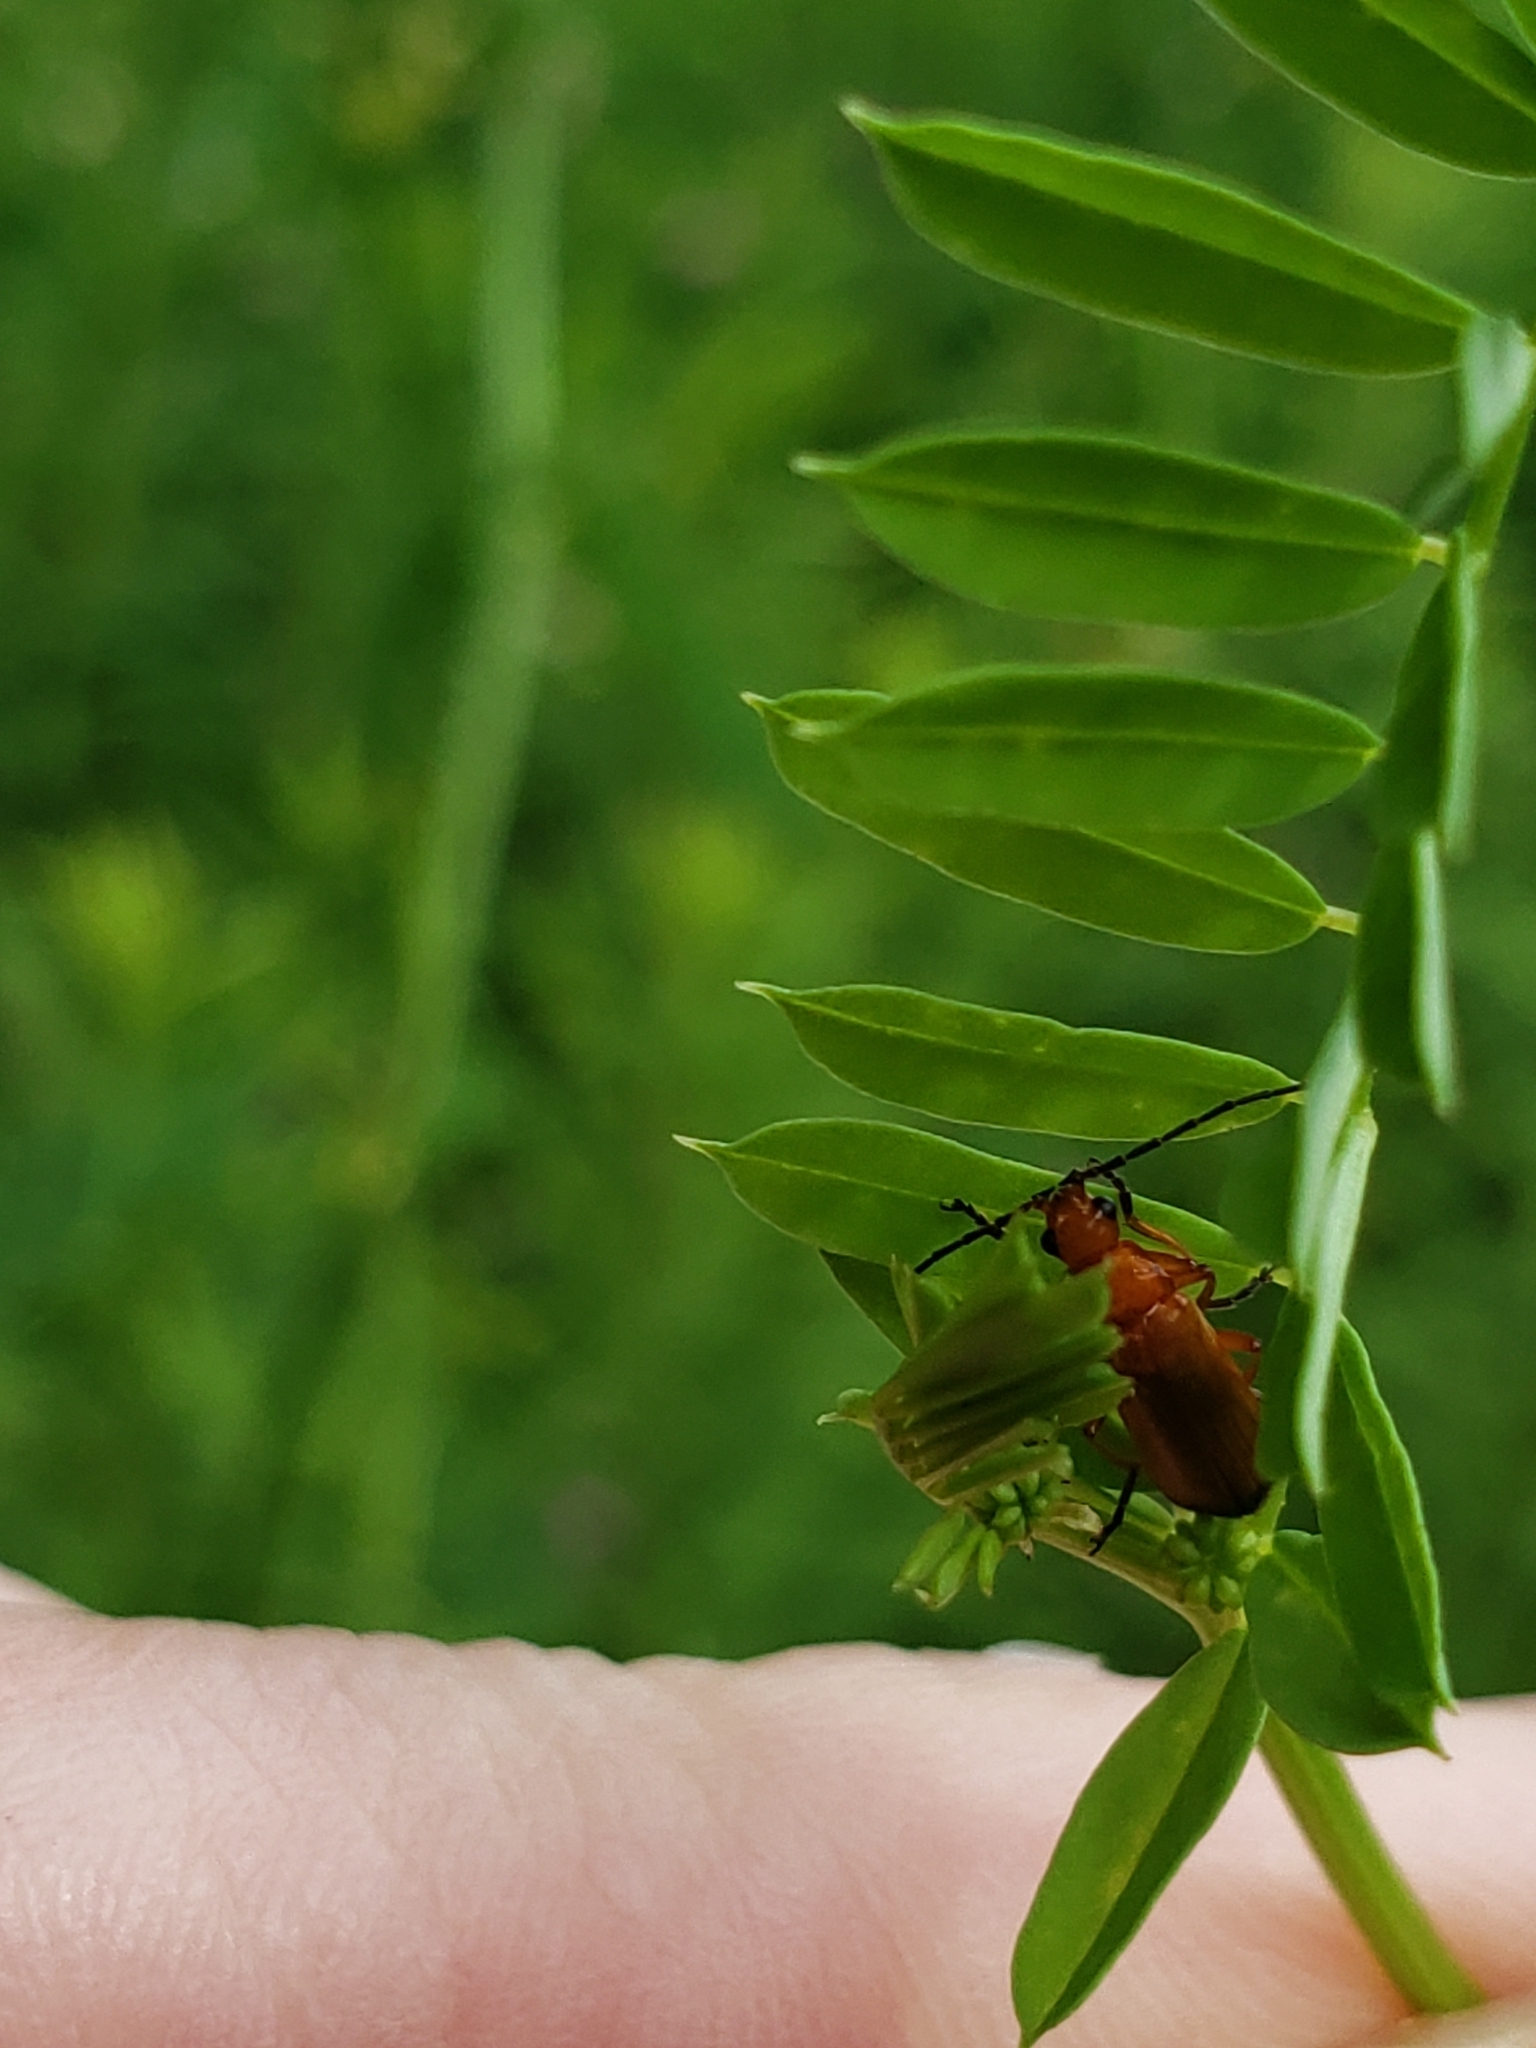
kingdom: Animalia
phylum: Arthropoda
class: Insecta
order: Coleoptera
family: Cantharidae
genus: Rhagonycha
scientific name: Rhagonycha fulva
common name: Common red soldier beetle
